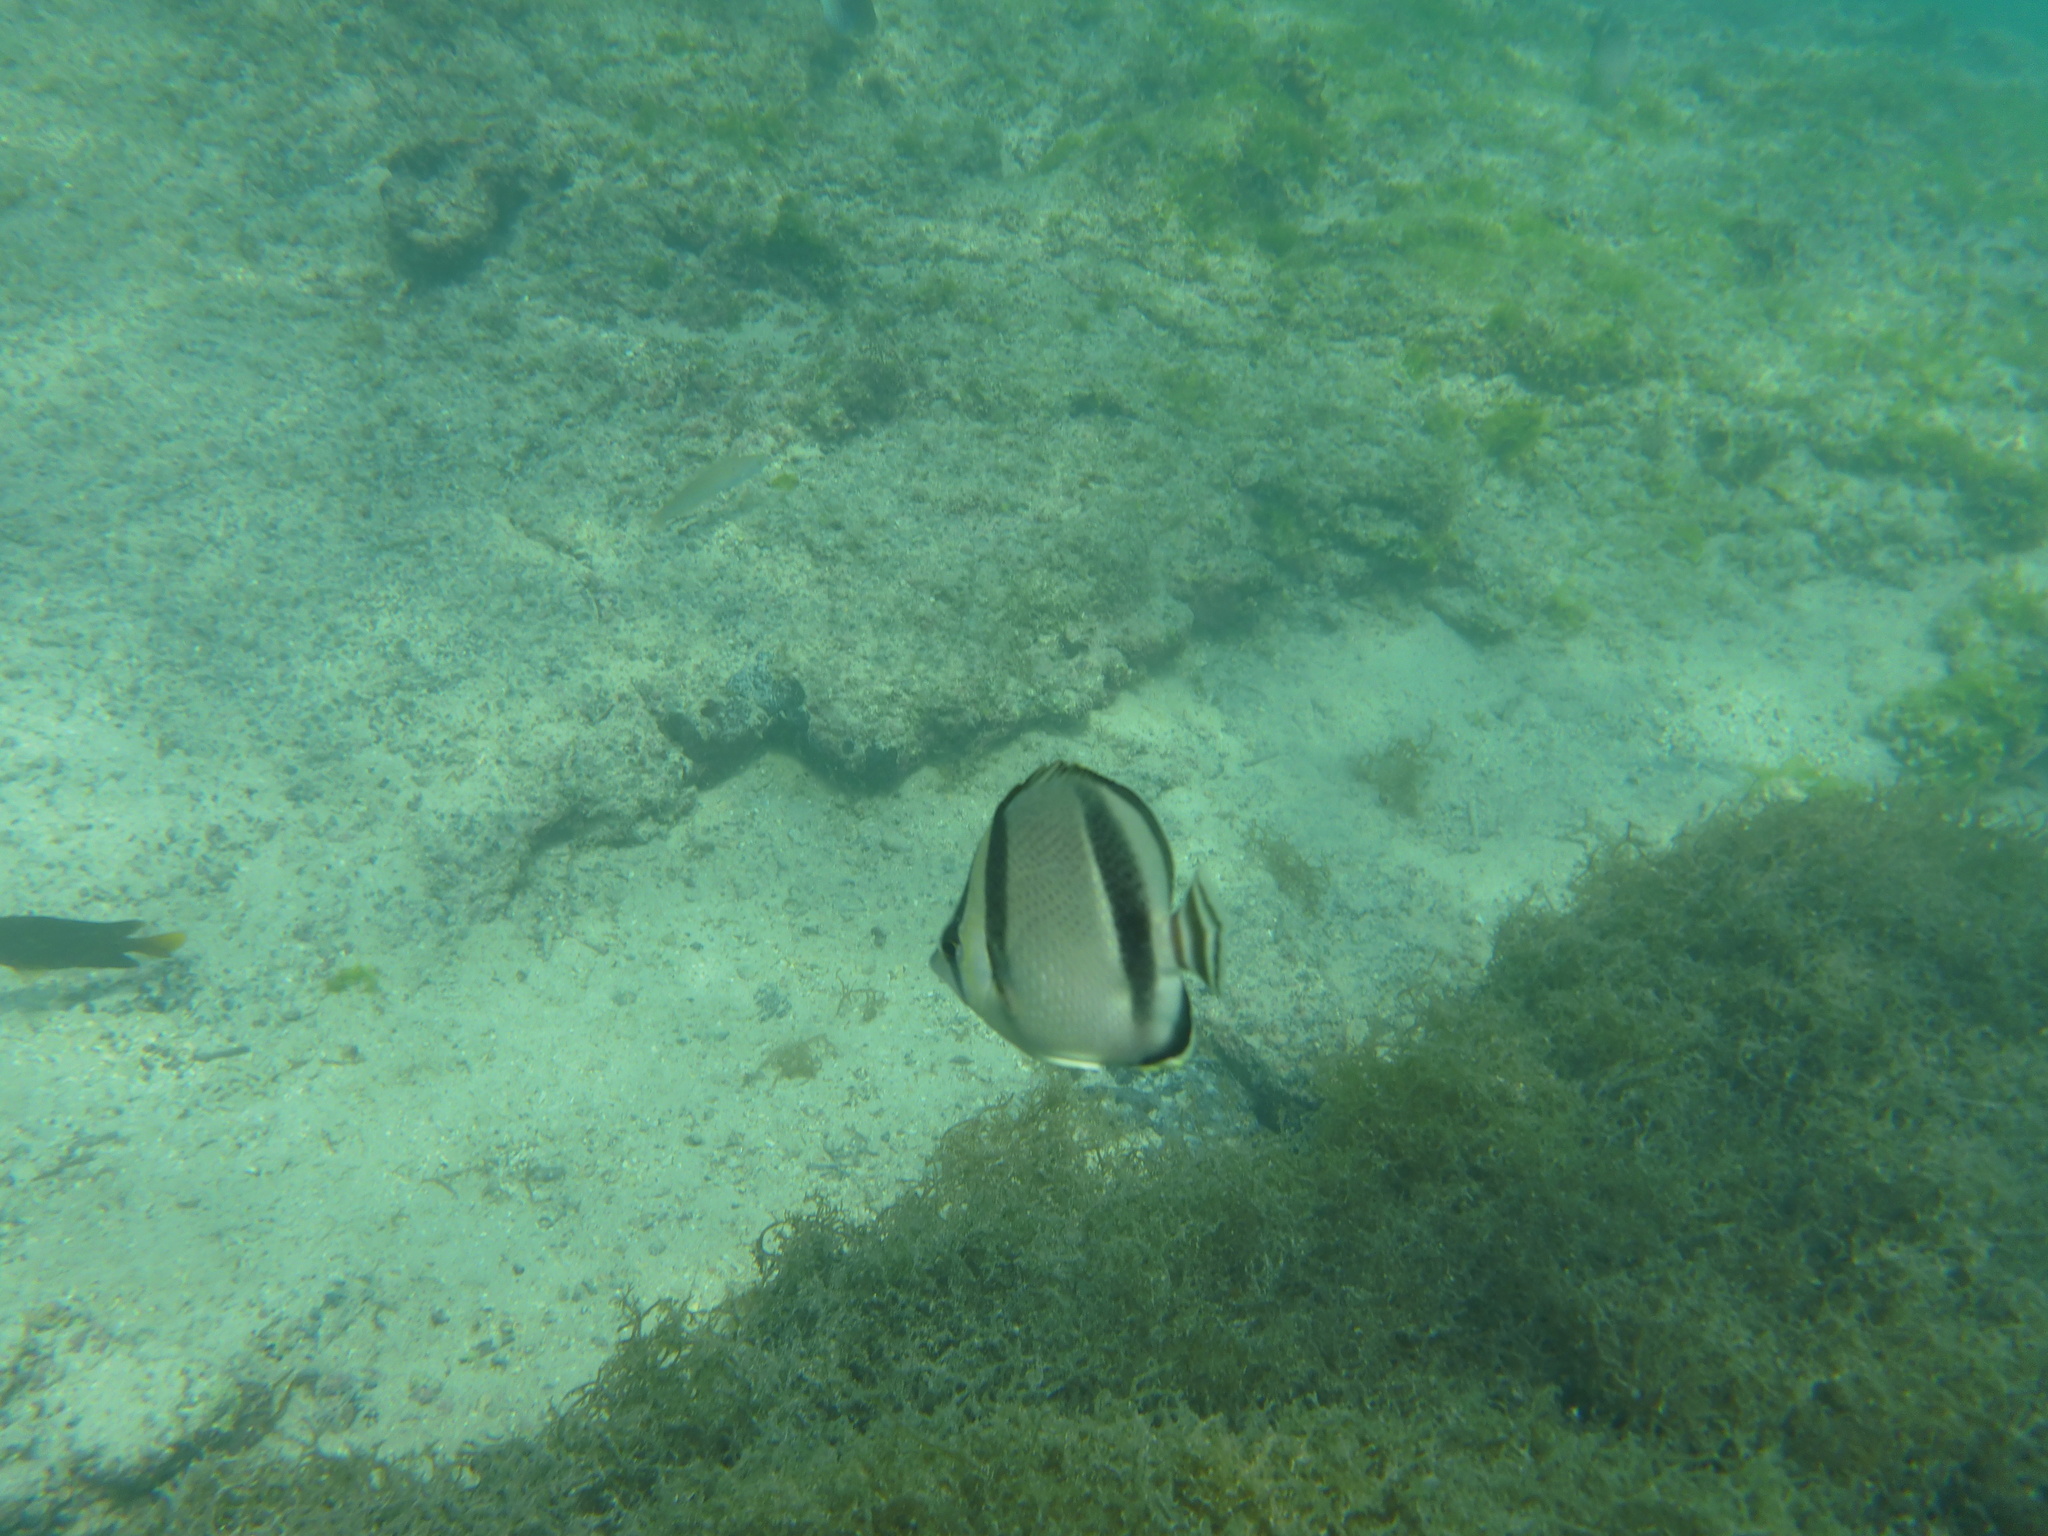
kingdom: Animalia
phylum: Chordata
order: Perciformes
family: Chaetodontidae
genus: Chaetodon
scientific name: Chaetodon humeralis
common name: Threebanded butterflyfish
